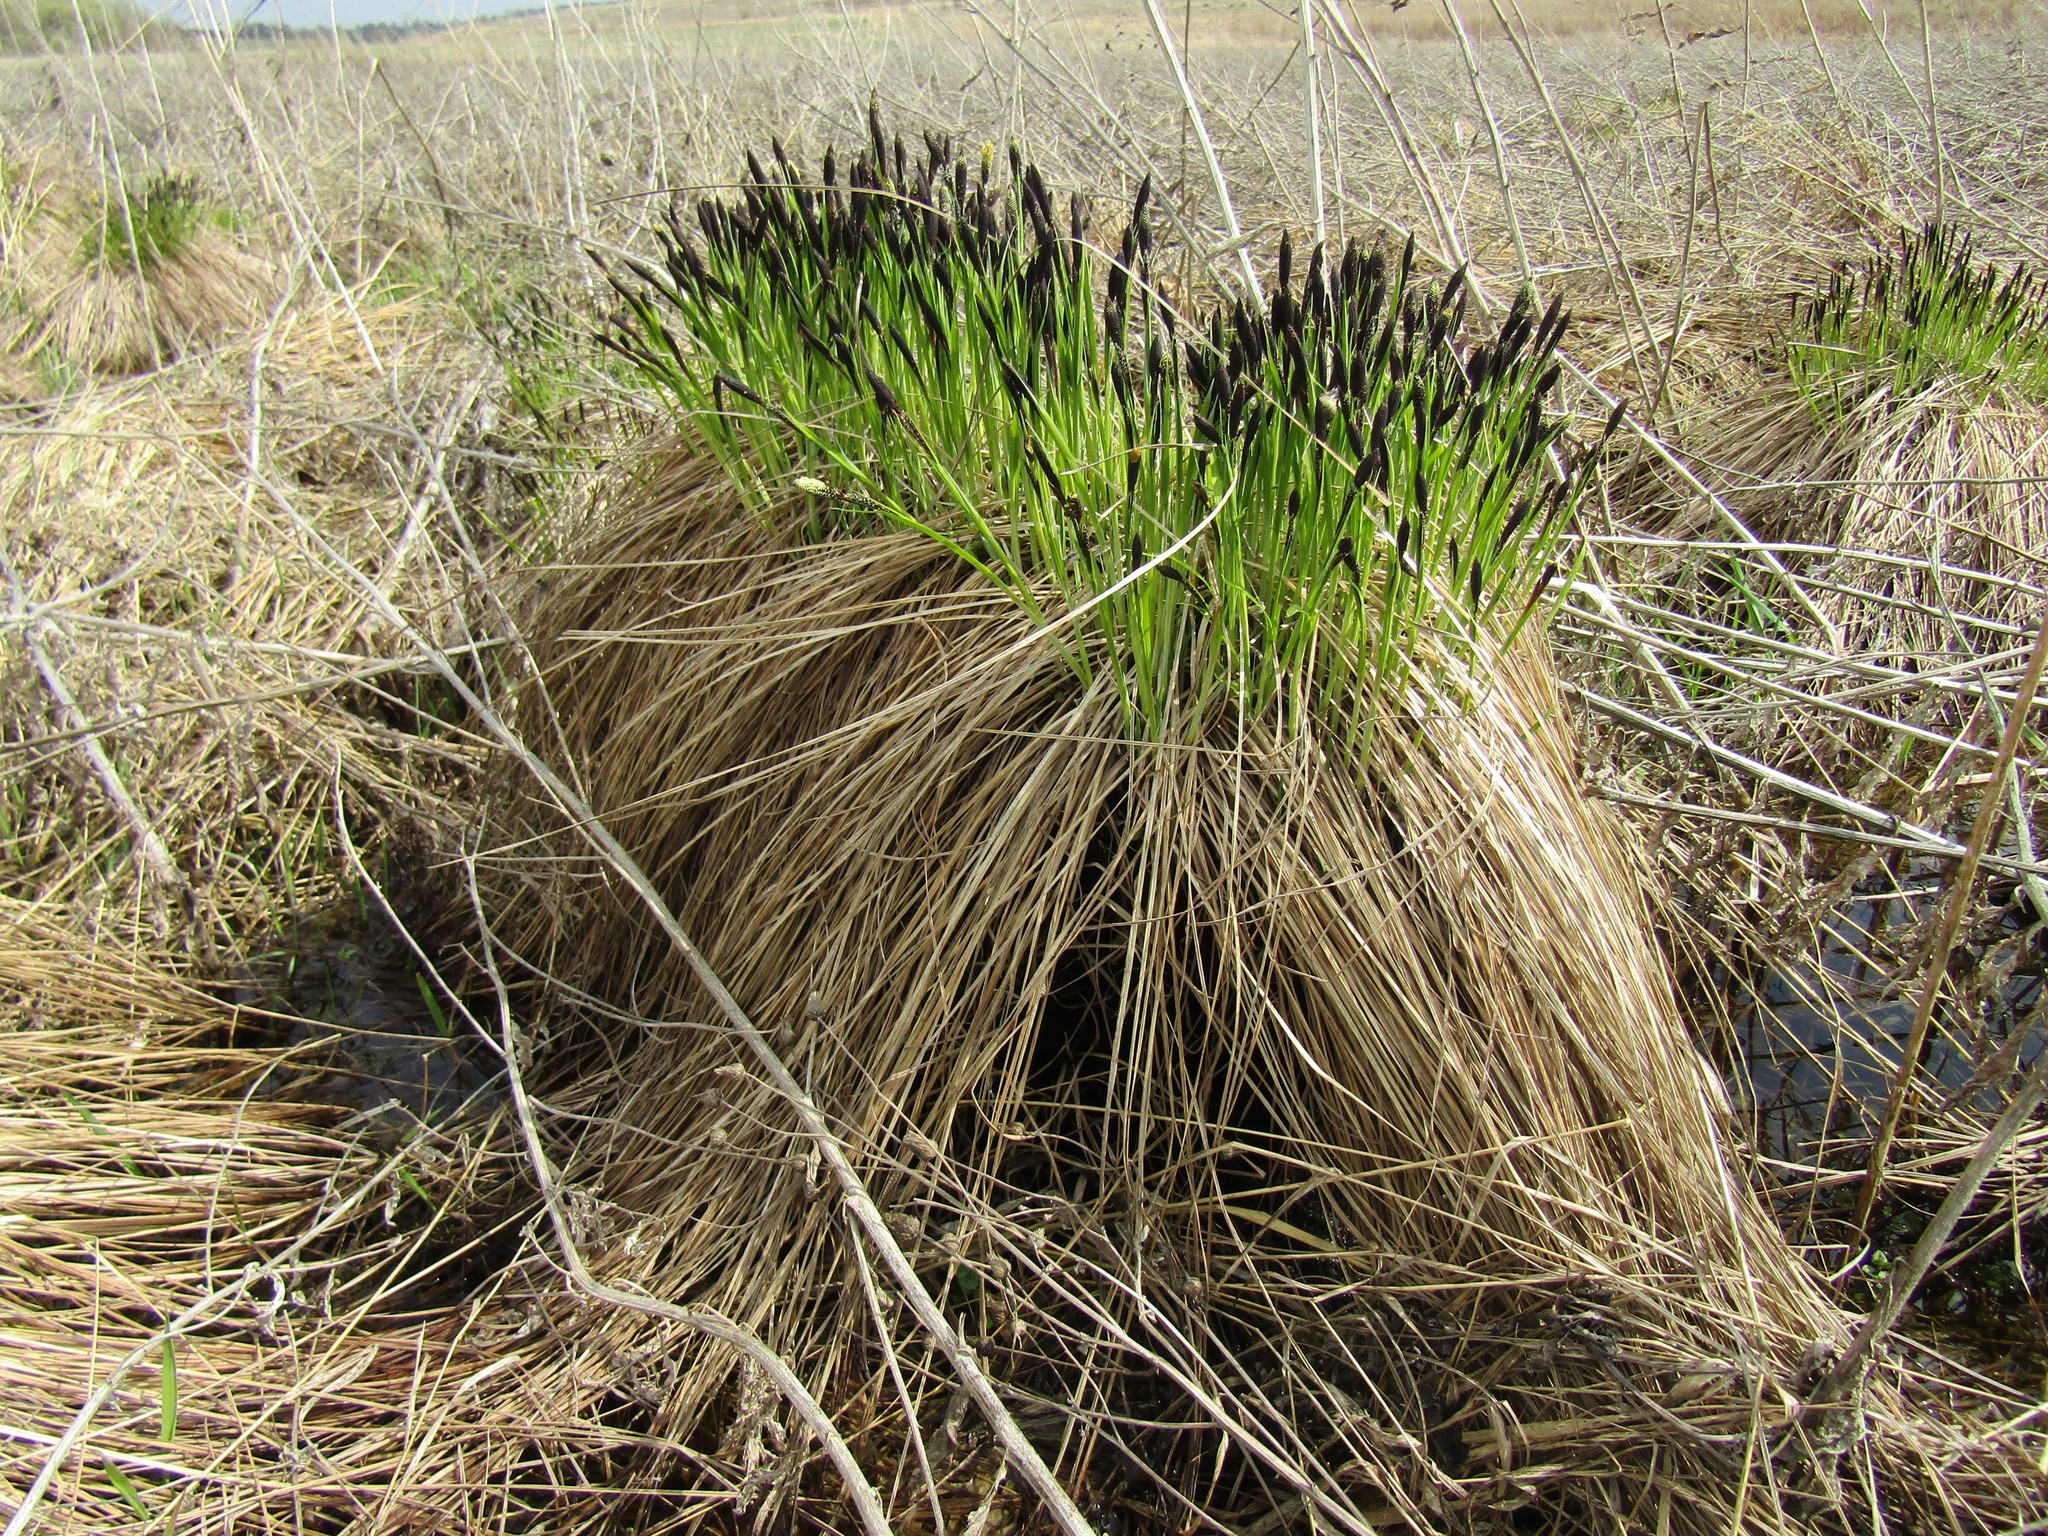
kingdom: Plantae
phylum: Tracheophyta
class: Liliopsida
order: Poales
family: Cyperaceae
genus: Carex
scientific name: Carex cespitosa
